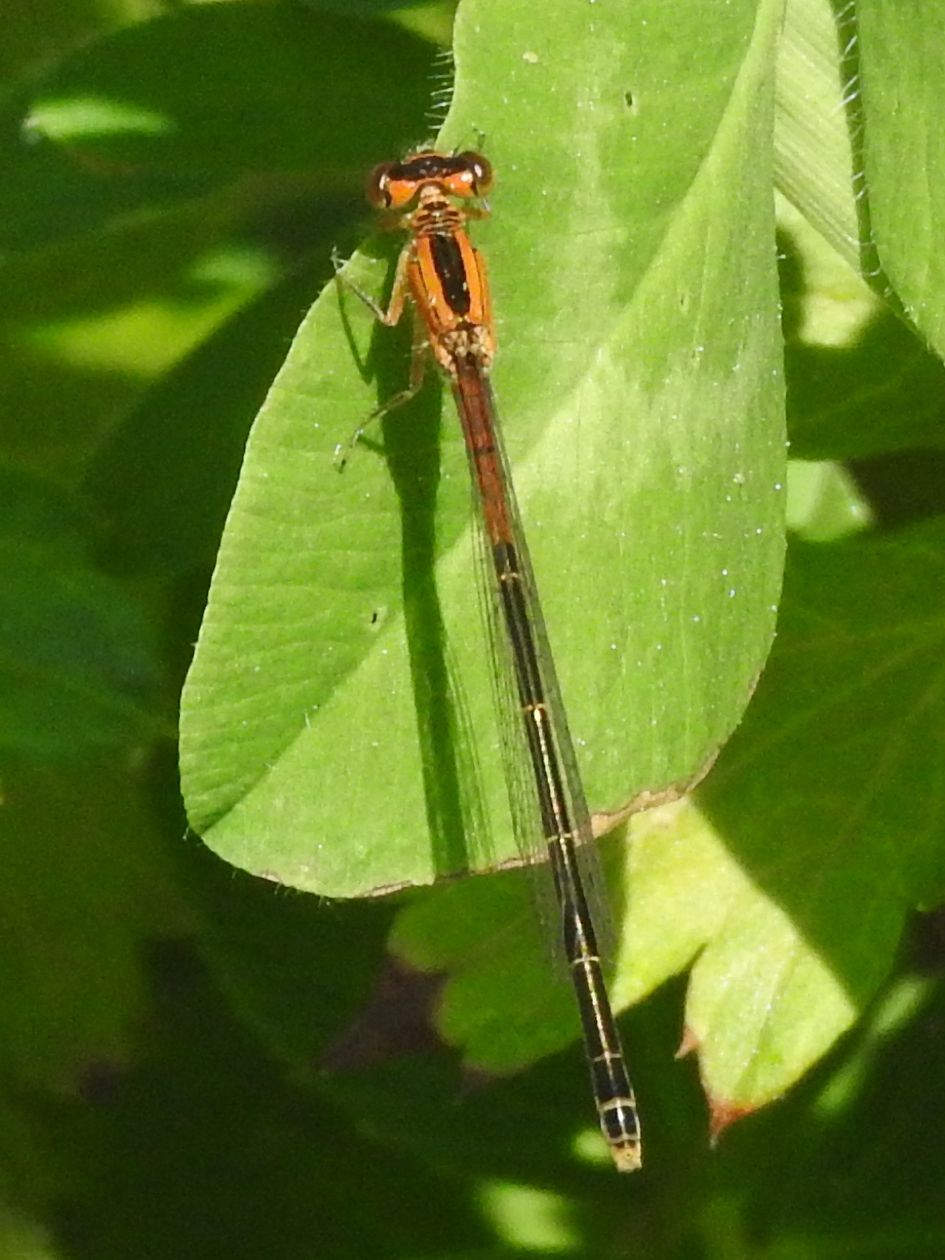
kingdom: Animalia
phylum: Arthropoda
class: Insecta
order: Odonata
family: Coenagrionidae
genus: Ischnura
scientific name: Ischnura verticalis
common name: Eastern forktail
